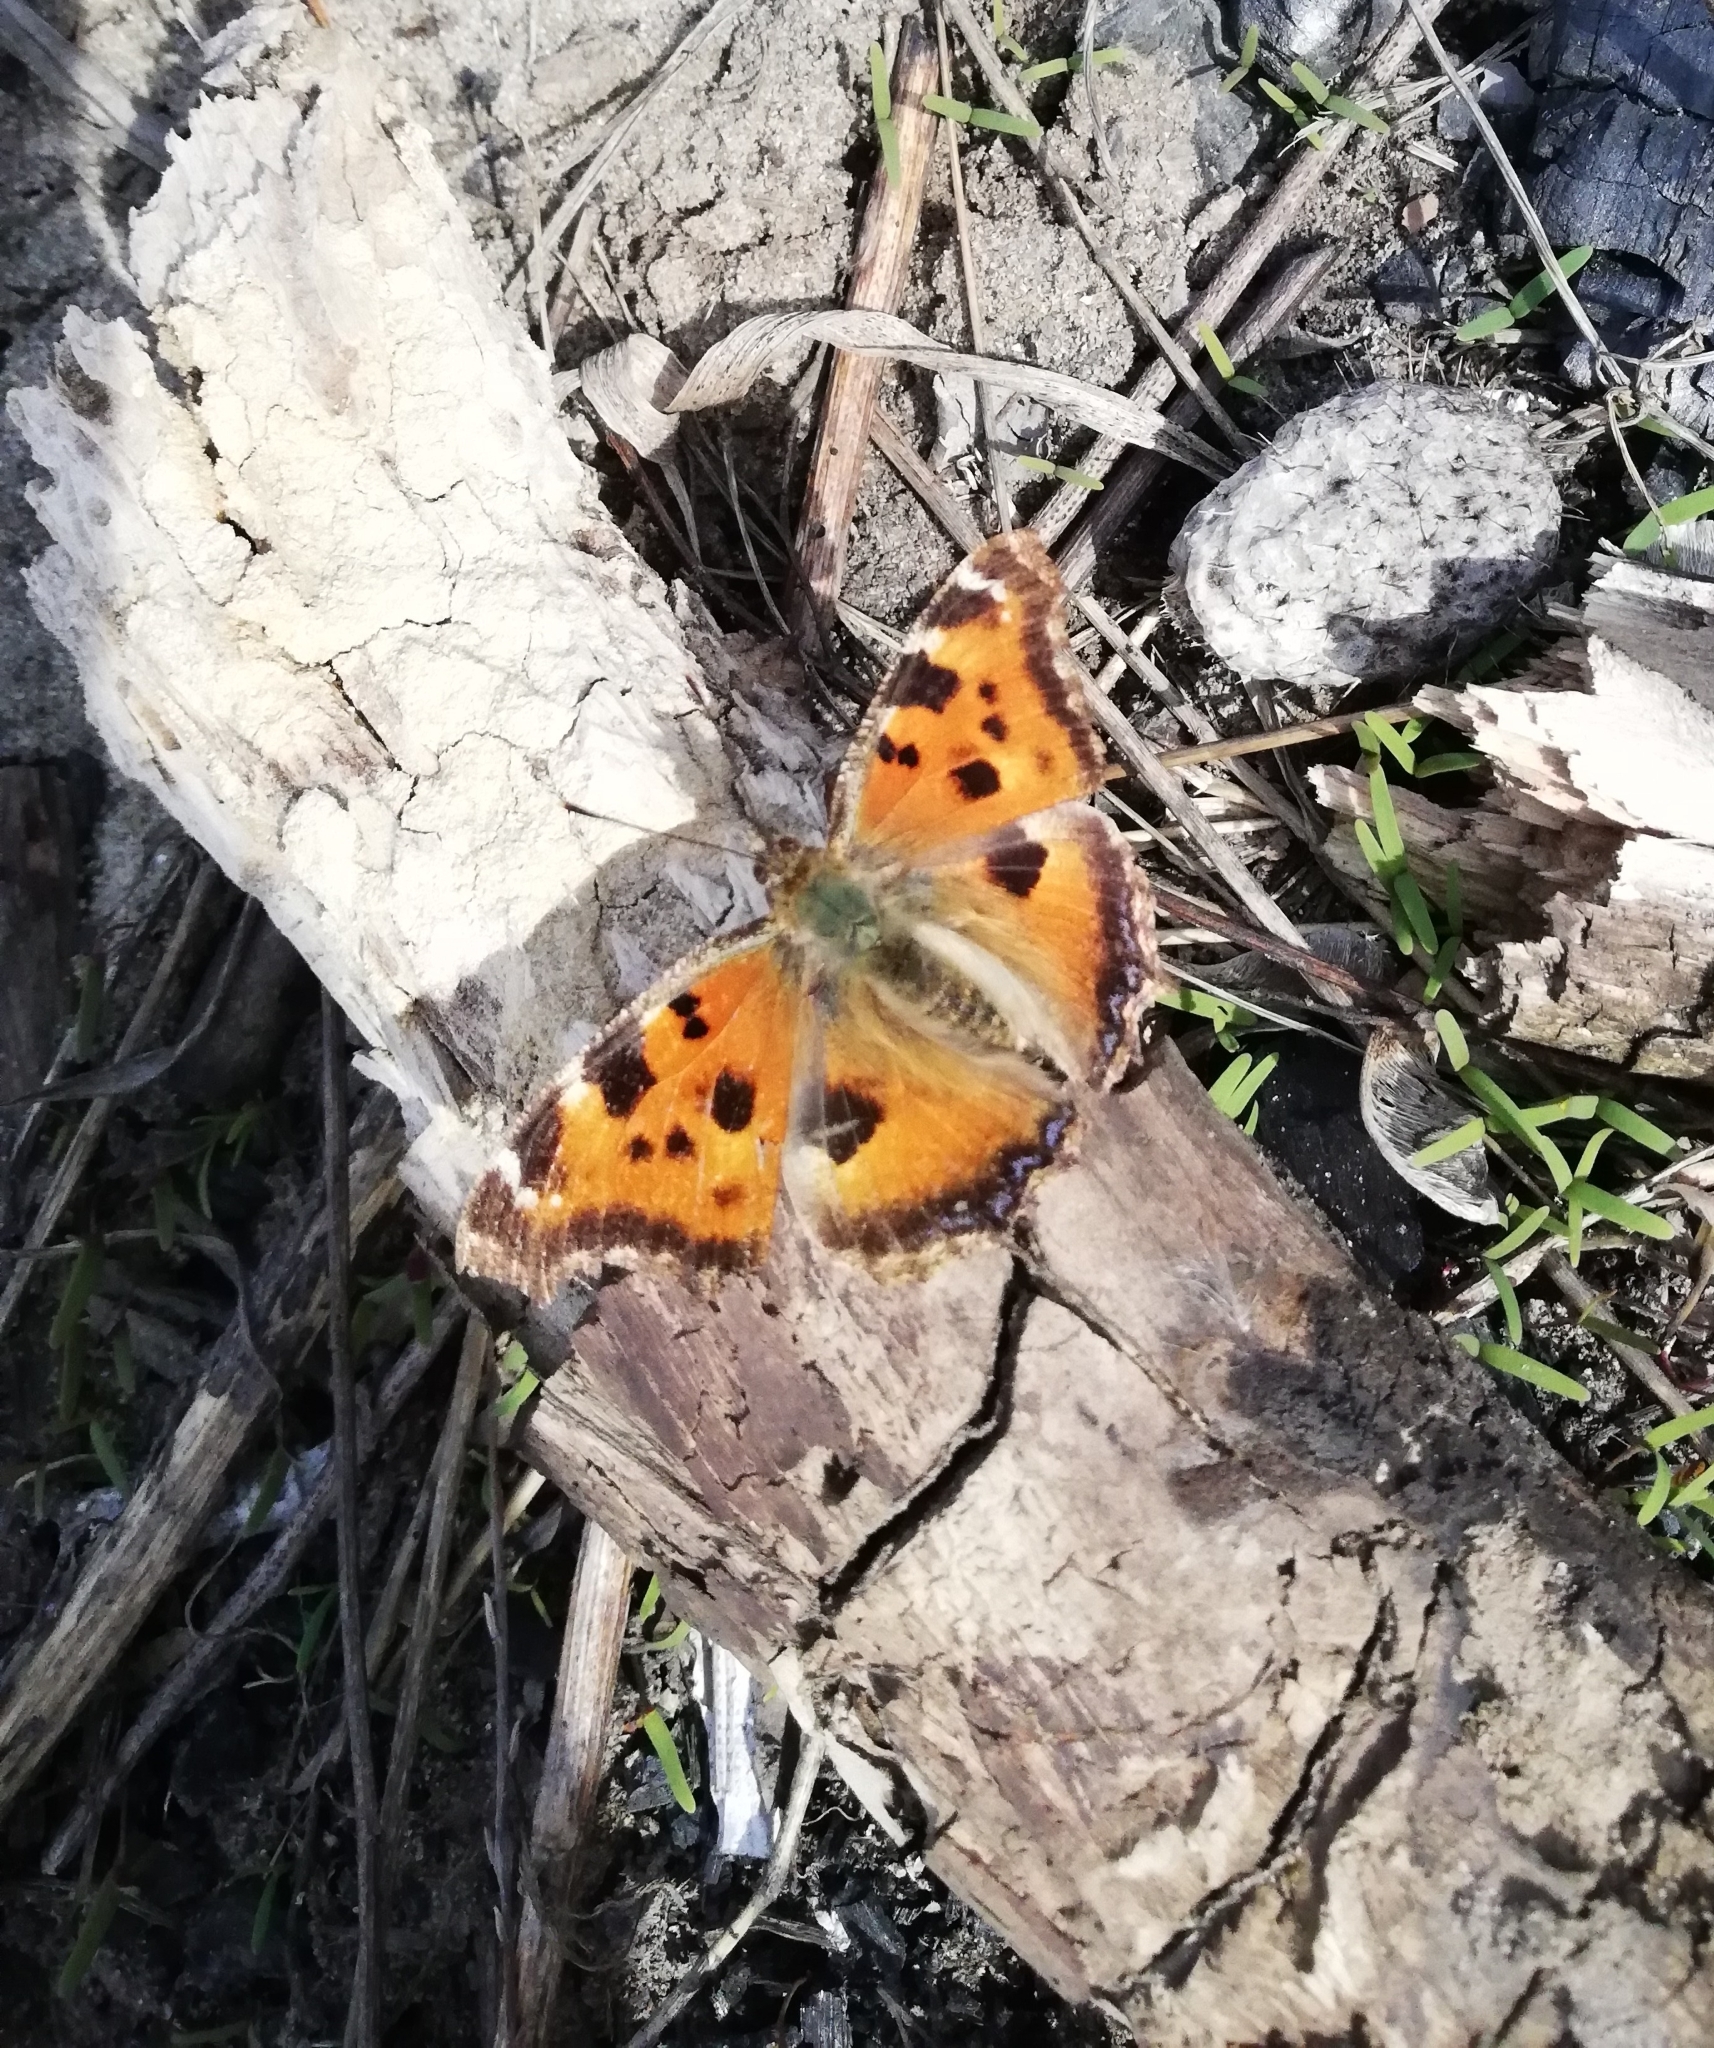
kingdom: Animalia
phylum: Arthropoda
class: Insecta
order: Lepidoptera
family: Nymphalidae
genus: Nymphalis
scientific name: Nymphalis xanthomelas
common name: Scarce tortoiseshell
